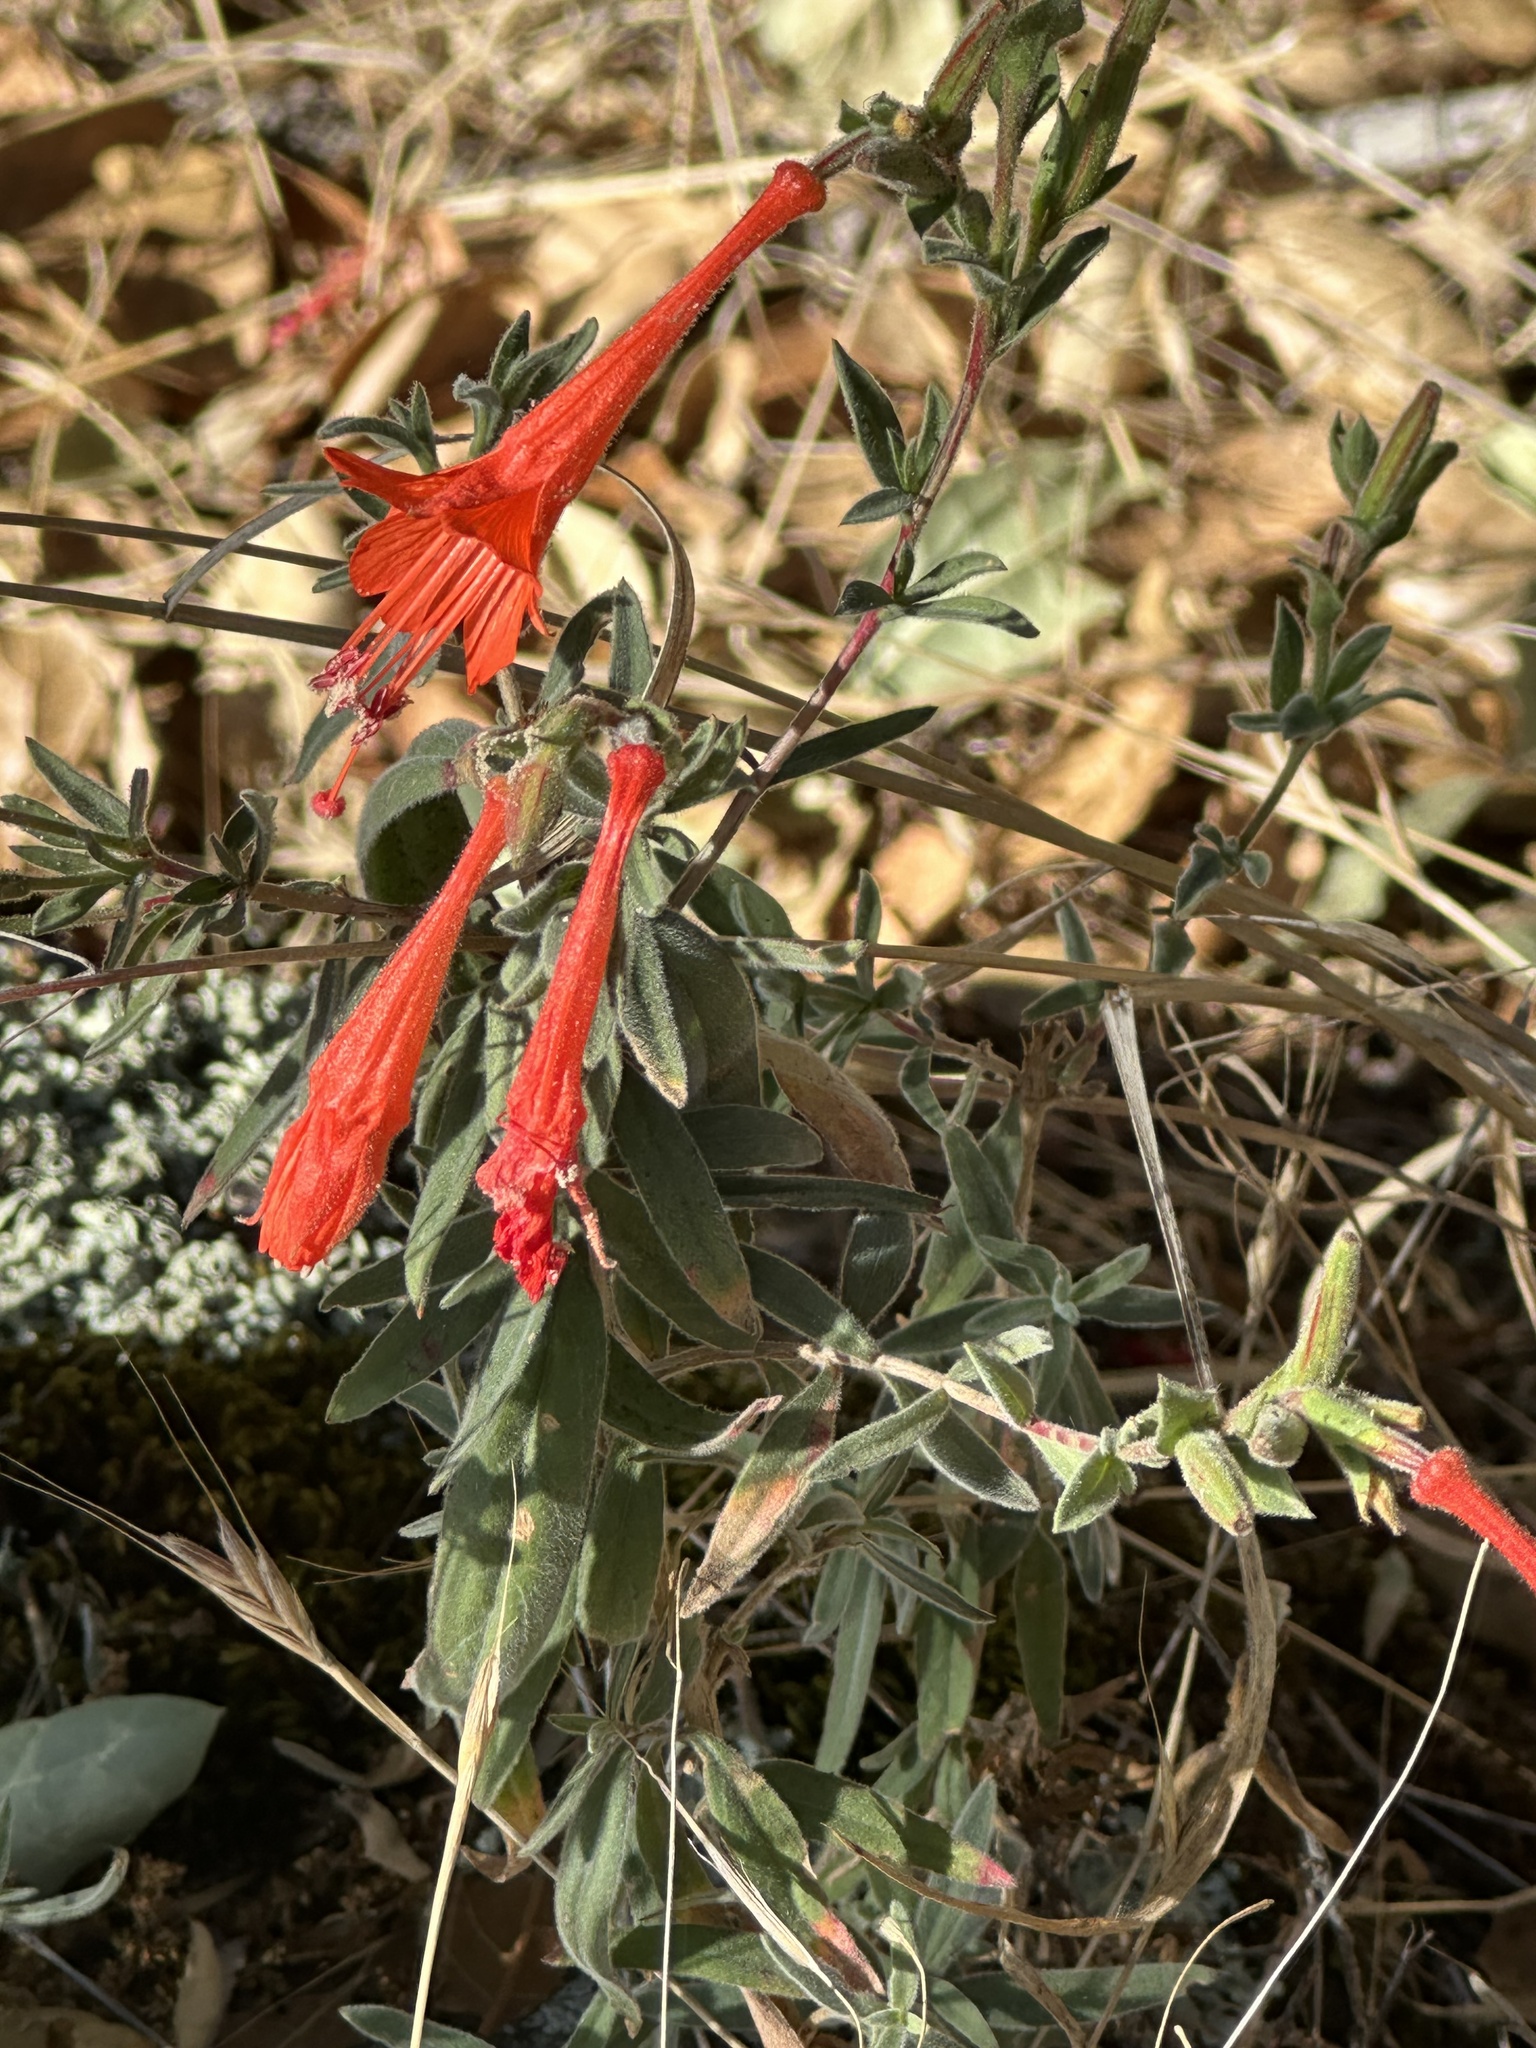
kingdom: Plantae
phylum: Tracheophyta
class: Magnoliopsida
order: Myrtales
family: Onagraceae
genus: Epilobium
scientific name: Epilobium canum
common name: California-fuchsia
